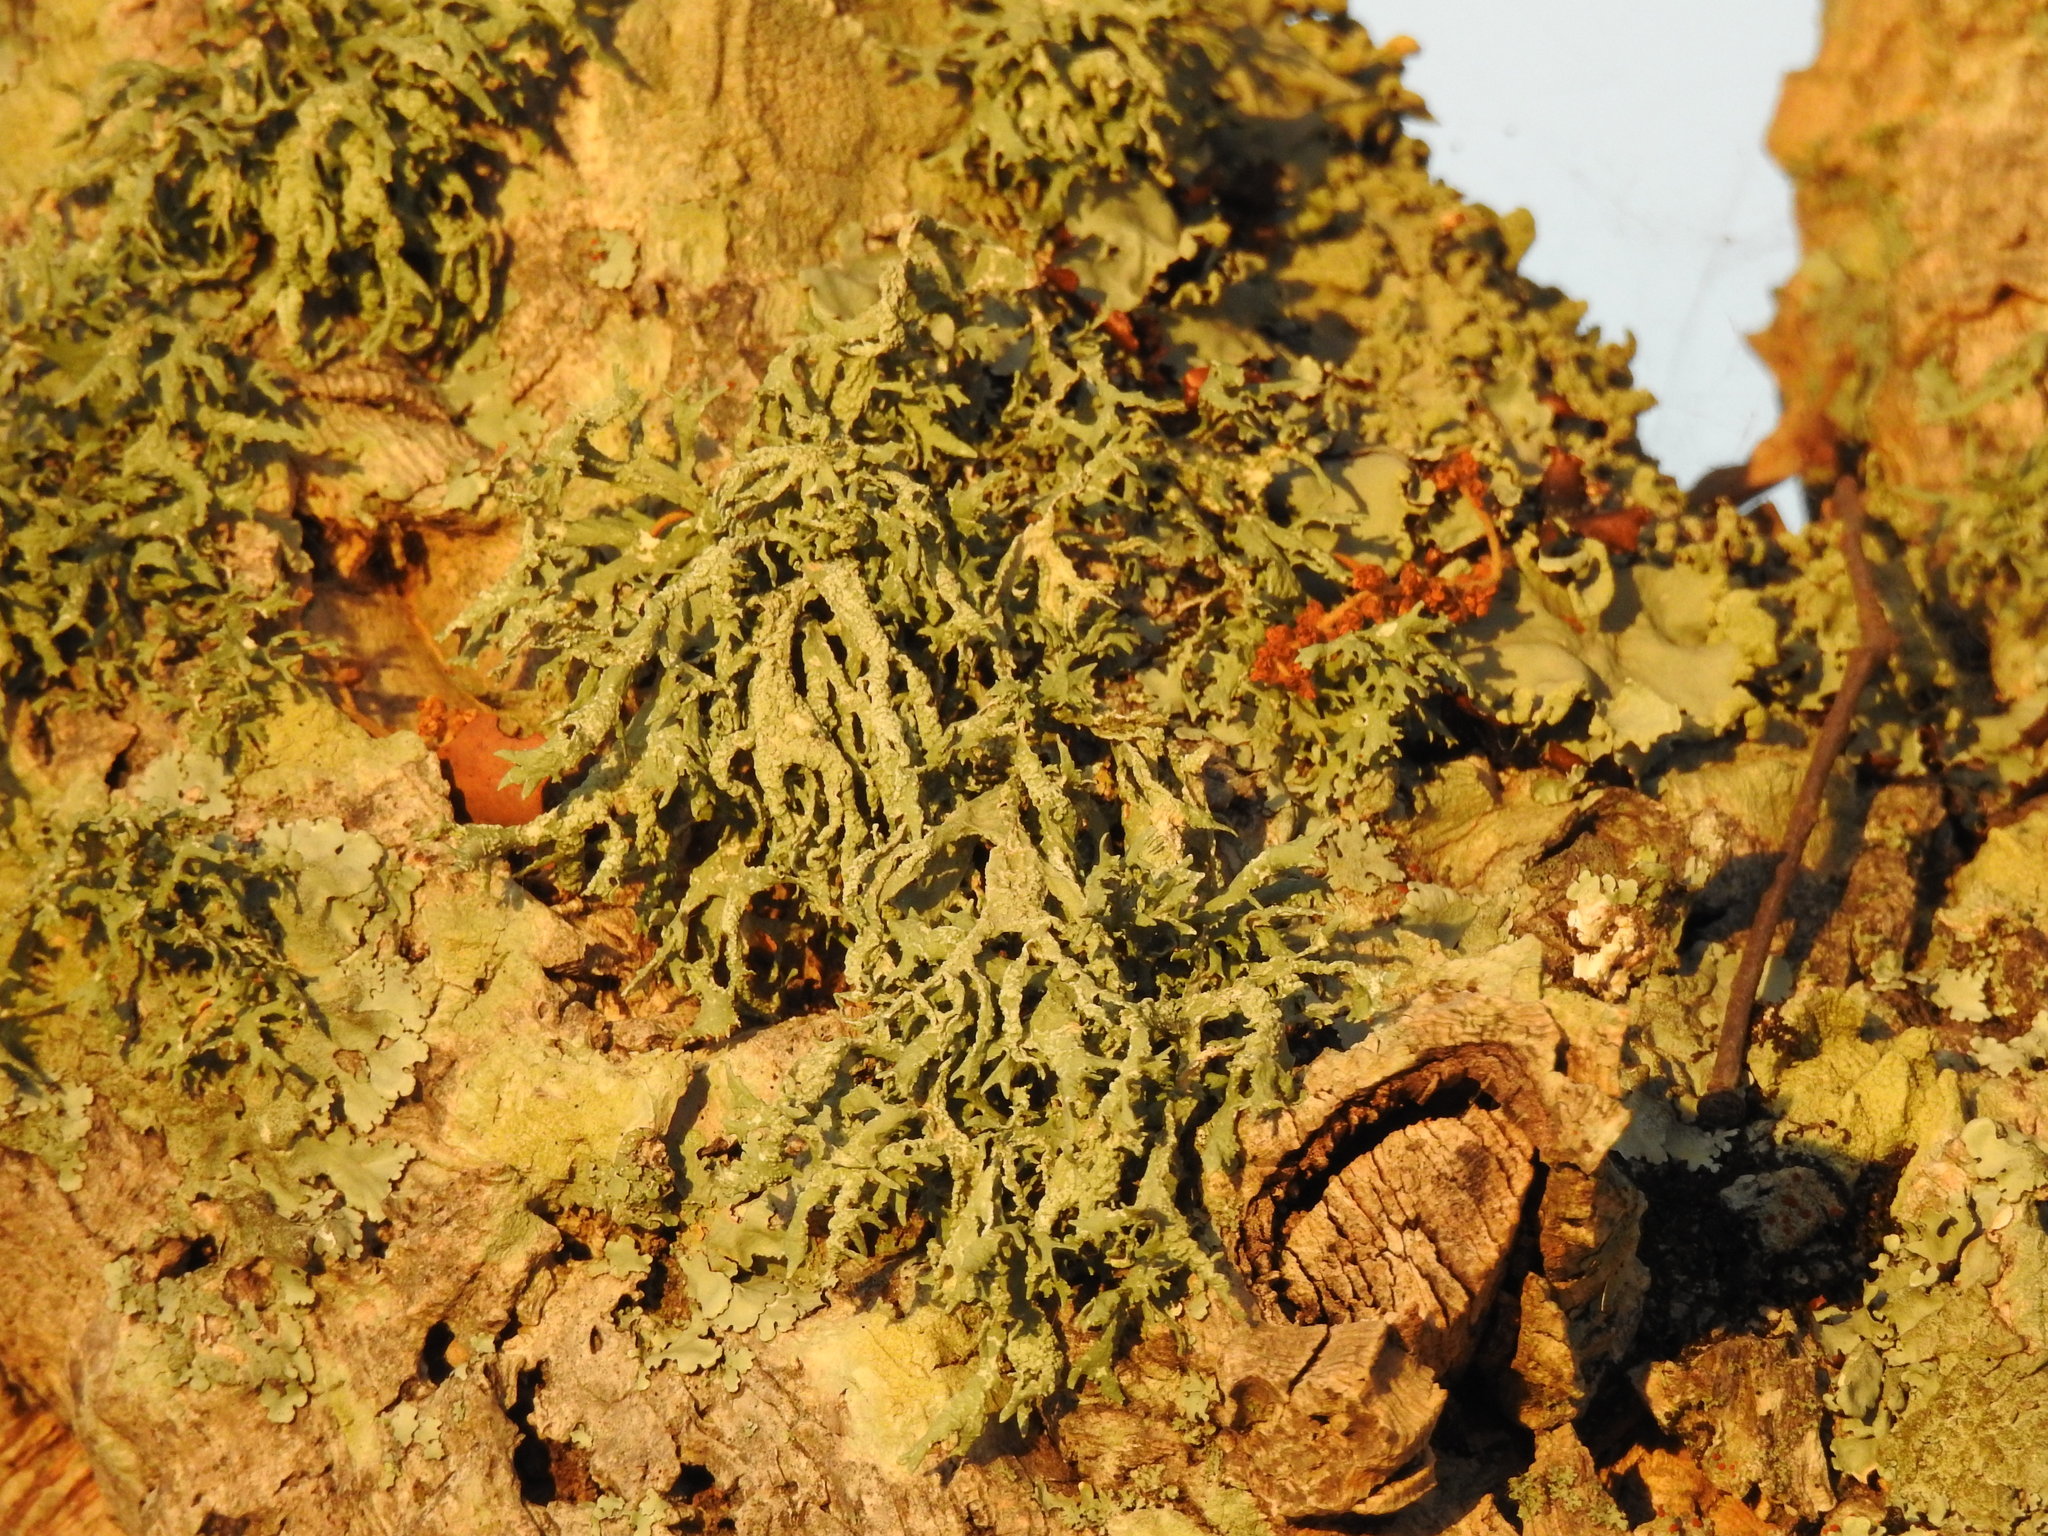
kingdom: Fungi
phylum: Ascomycota
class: Lecanoromycetes
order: Lecanorales
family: Parmeliaceae
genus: Evernia
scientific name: Evernia prunastri
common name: Oak moss
